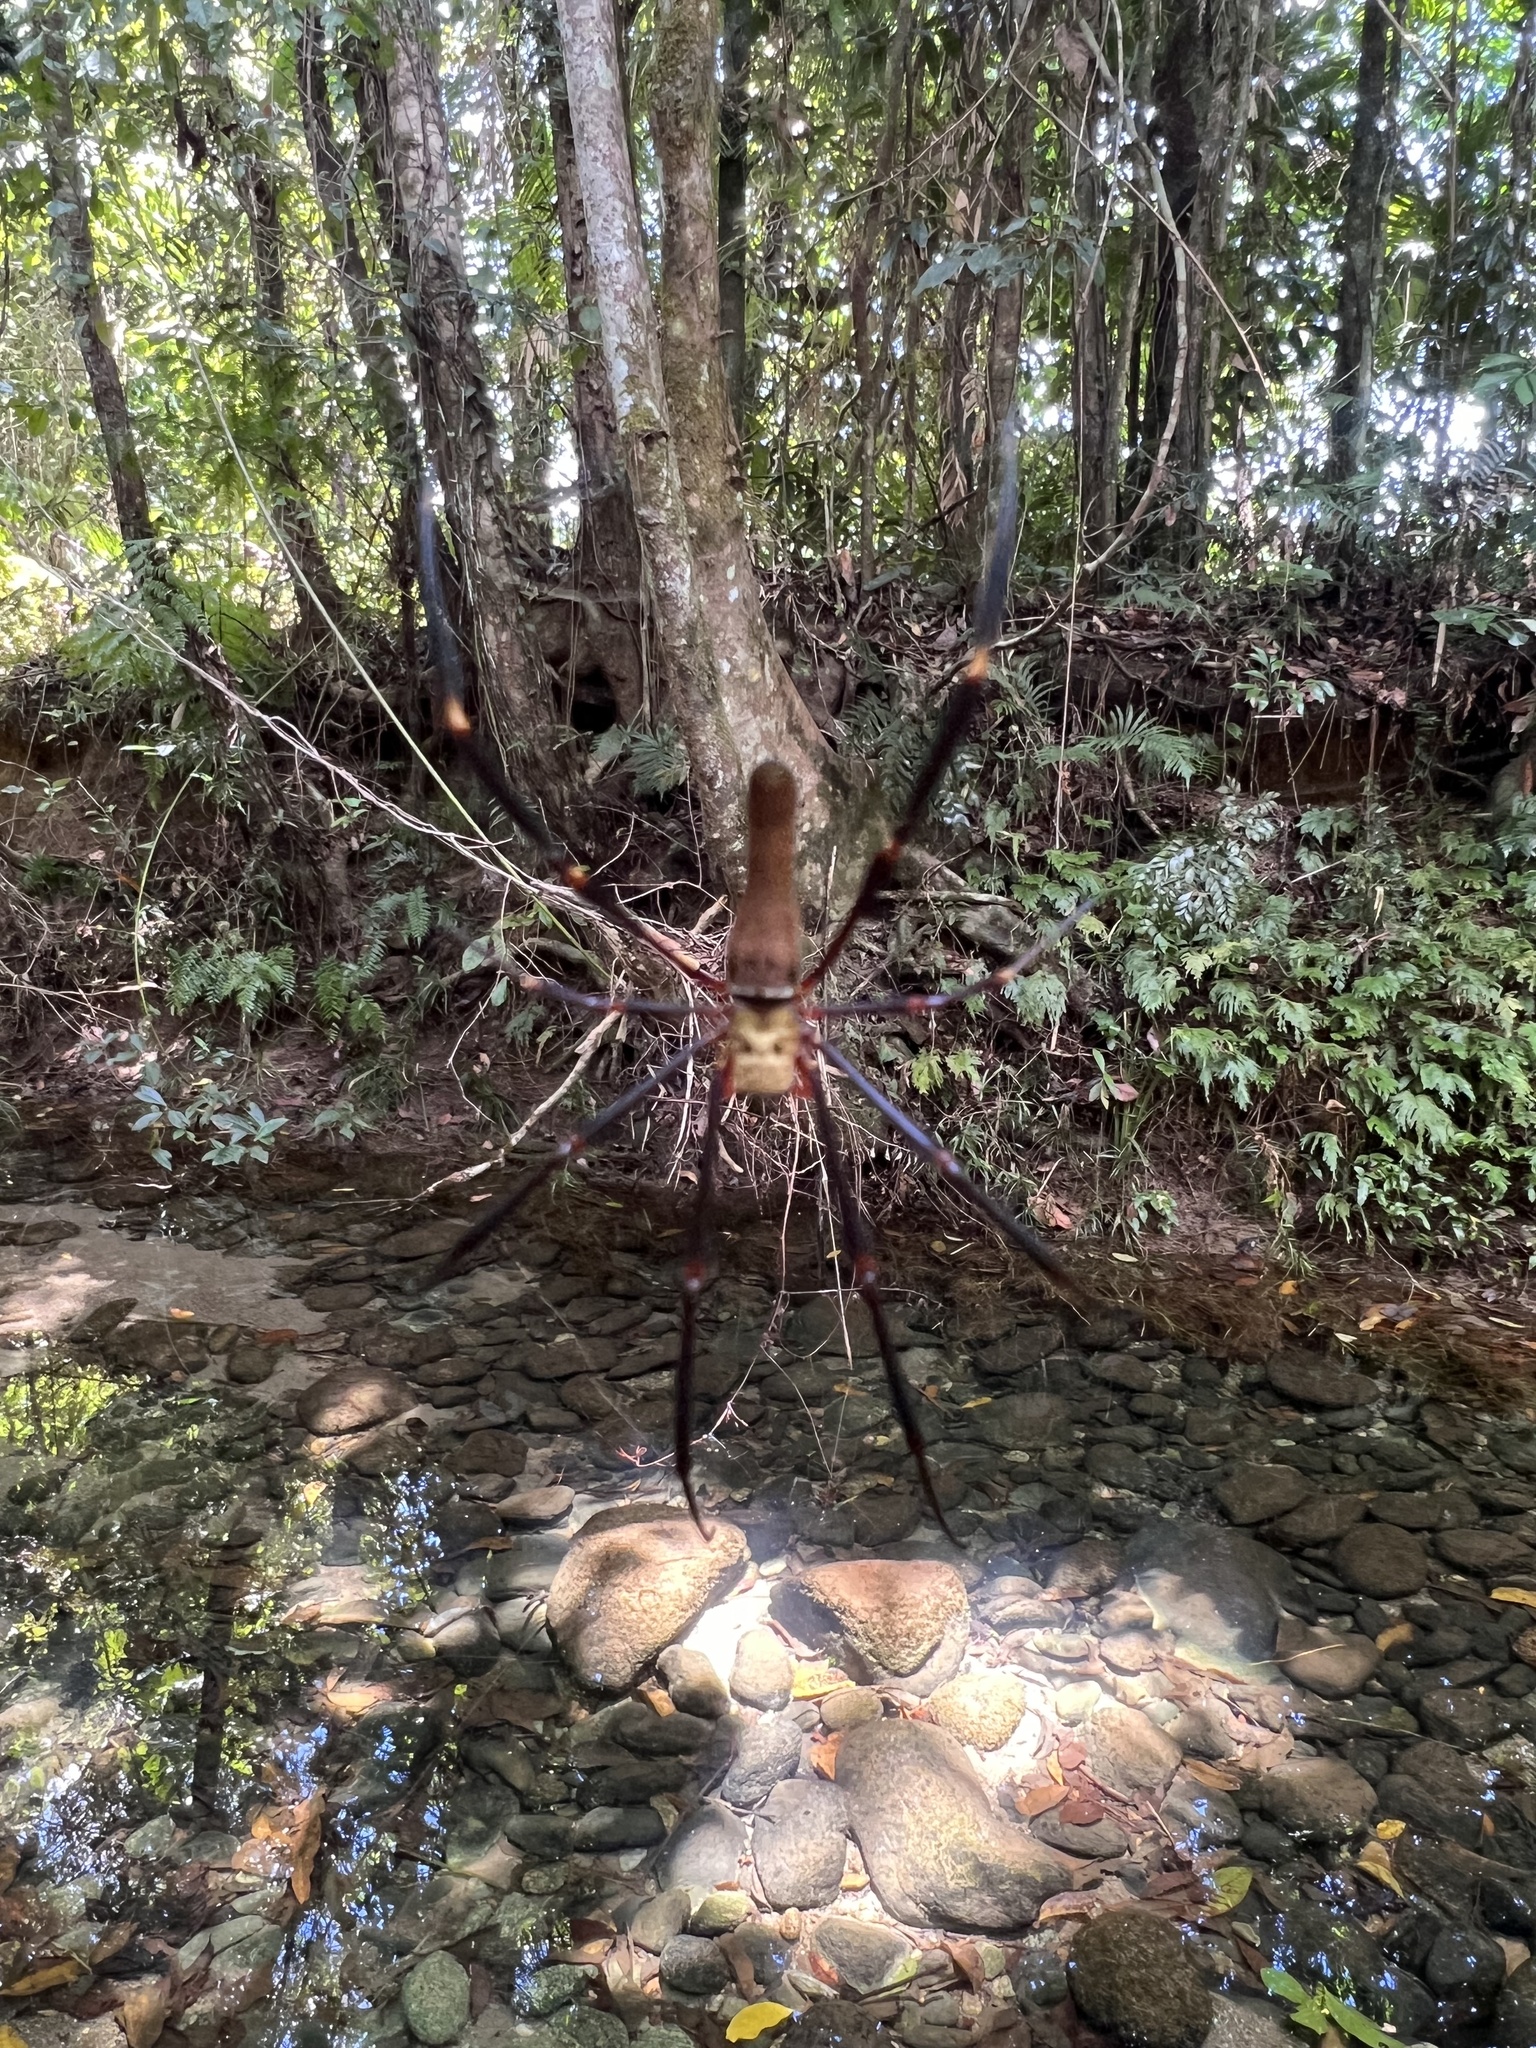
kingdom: Animalia
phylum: Arthropoda
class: Arachnida
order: Araneae
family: Araneidae
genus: Nephila
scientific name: Nephila pilipes
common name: Giant golden orb weaver
